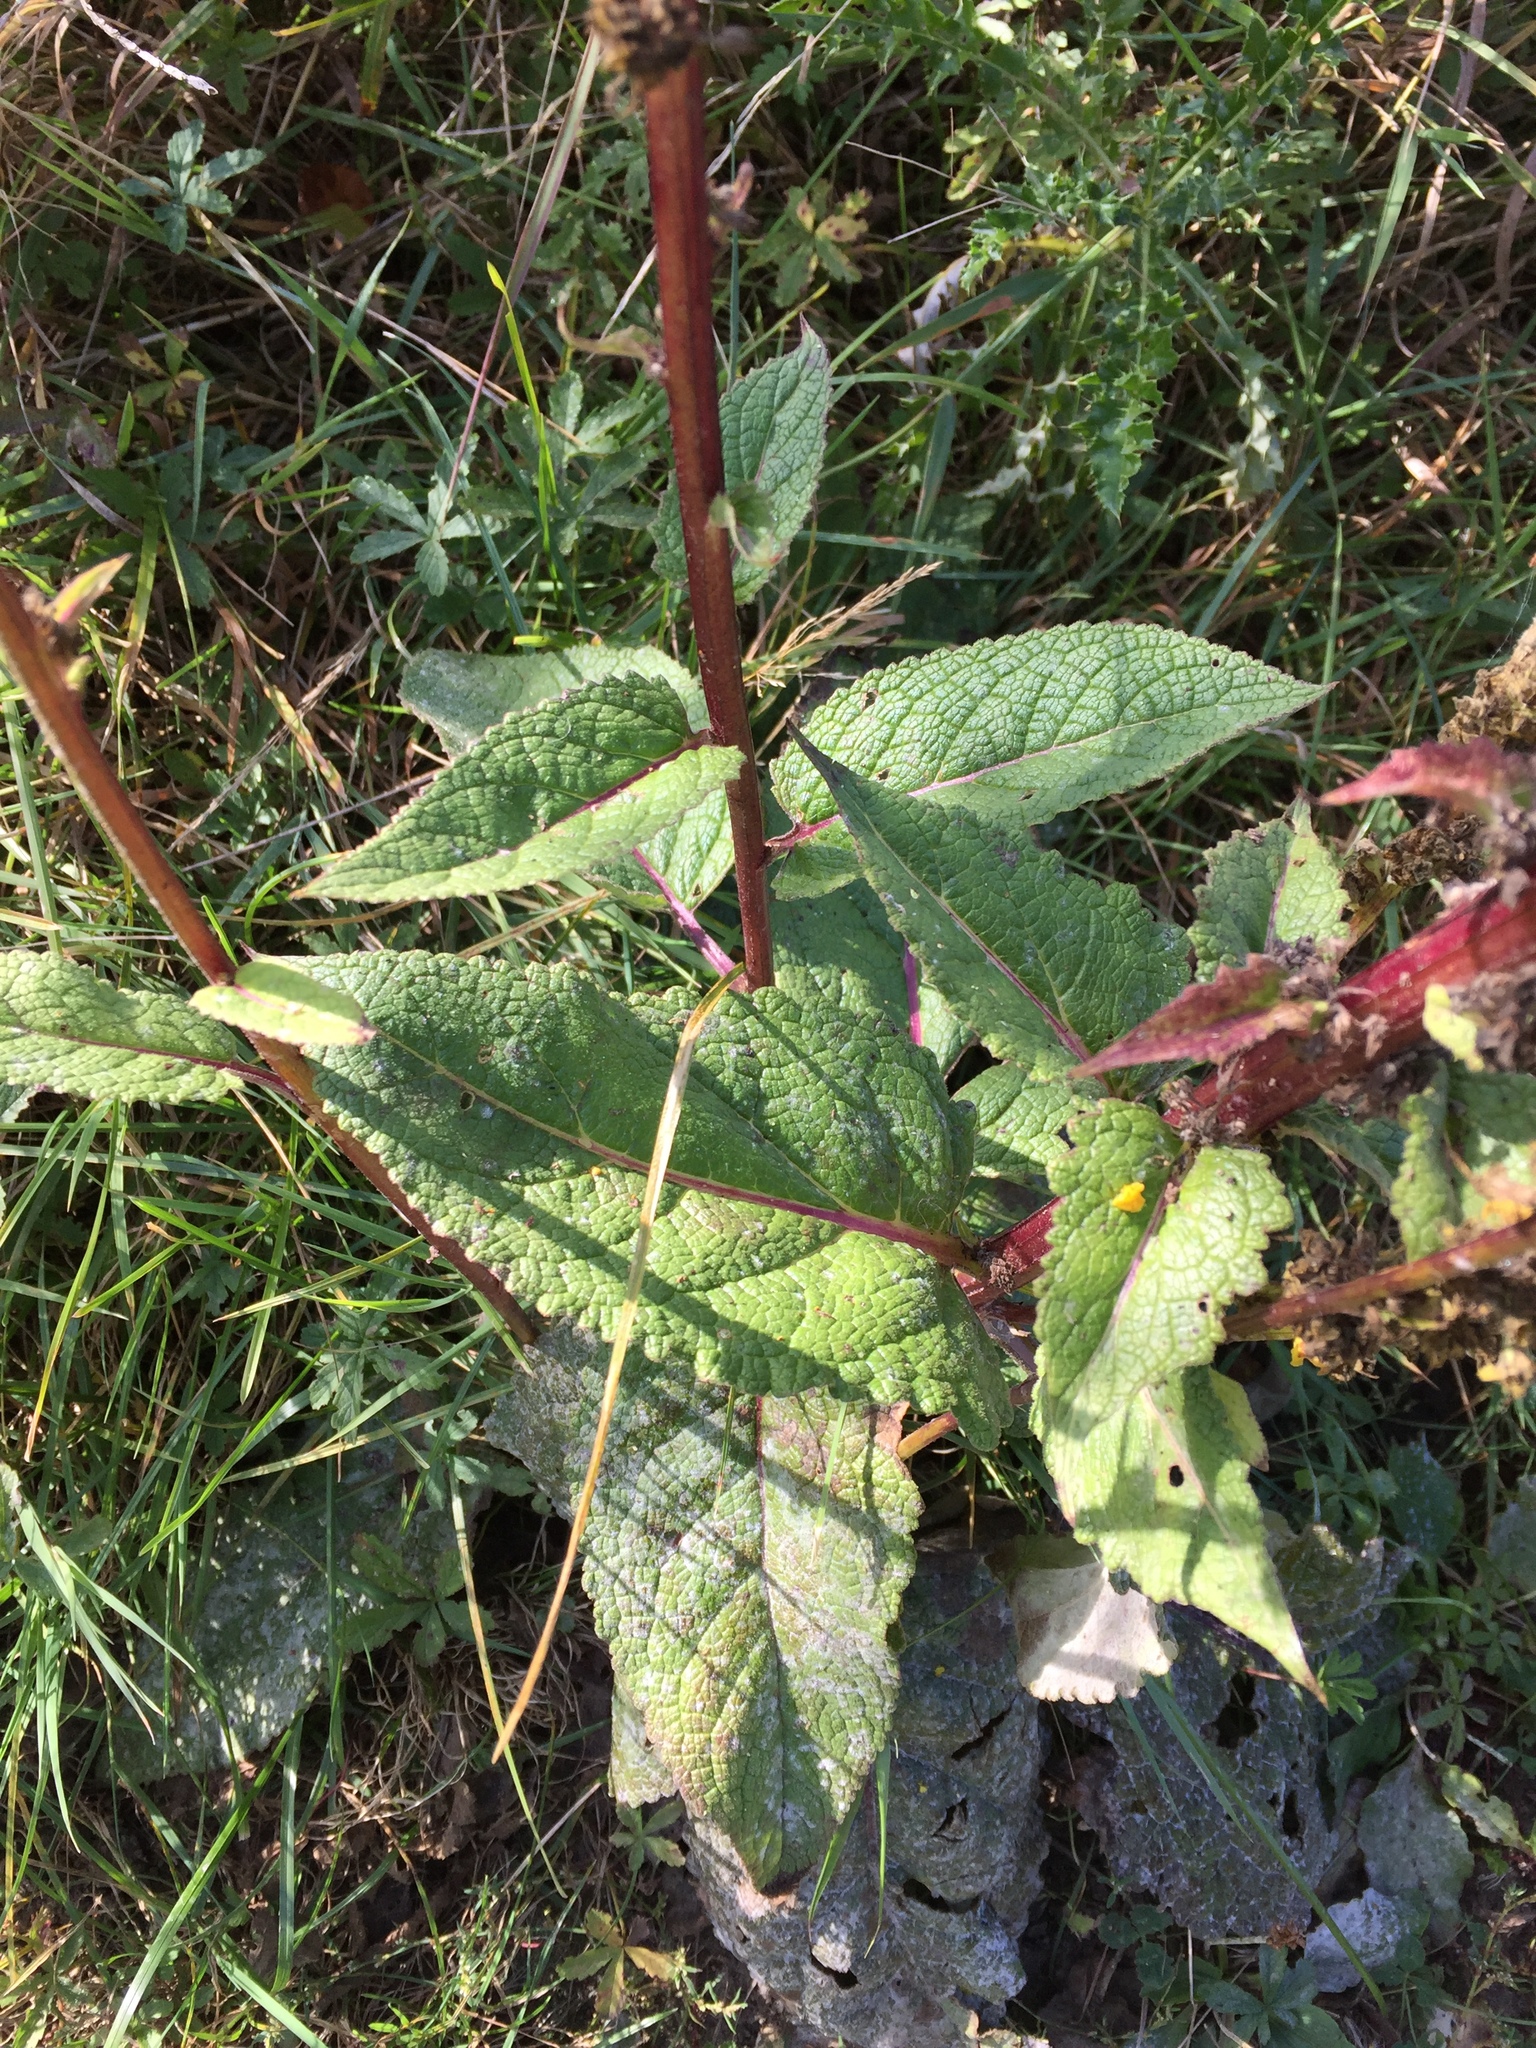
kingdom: Plantae
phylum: Tracheophyta
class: Magnoliopsida
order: Lamiales
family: Scrophulariaceae
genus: Verbascum
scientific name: Verbascum nigrum
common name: Dark mullein
